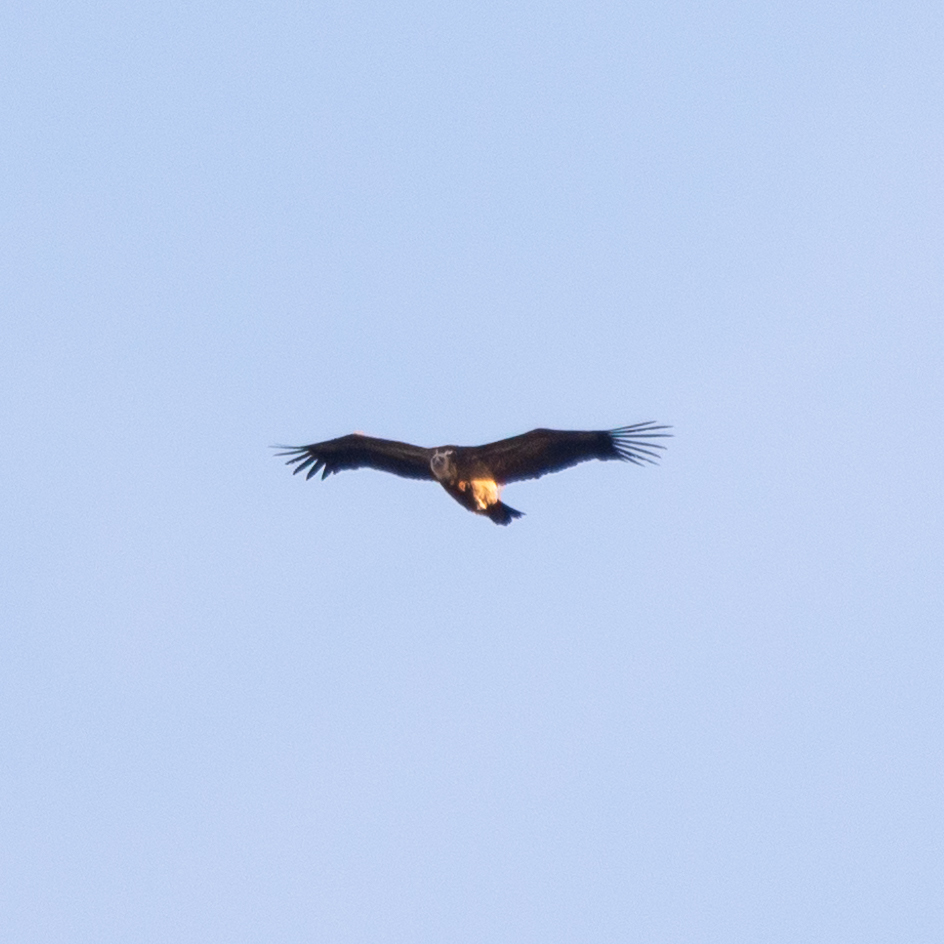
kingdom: Animalia
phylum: Chordata
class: Aves
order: Accipitriformes
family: Accipitridae
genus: Gyps
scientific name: Gyps fulvus
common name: Griffon vulture
